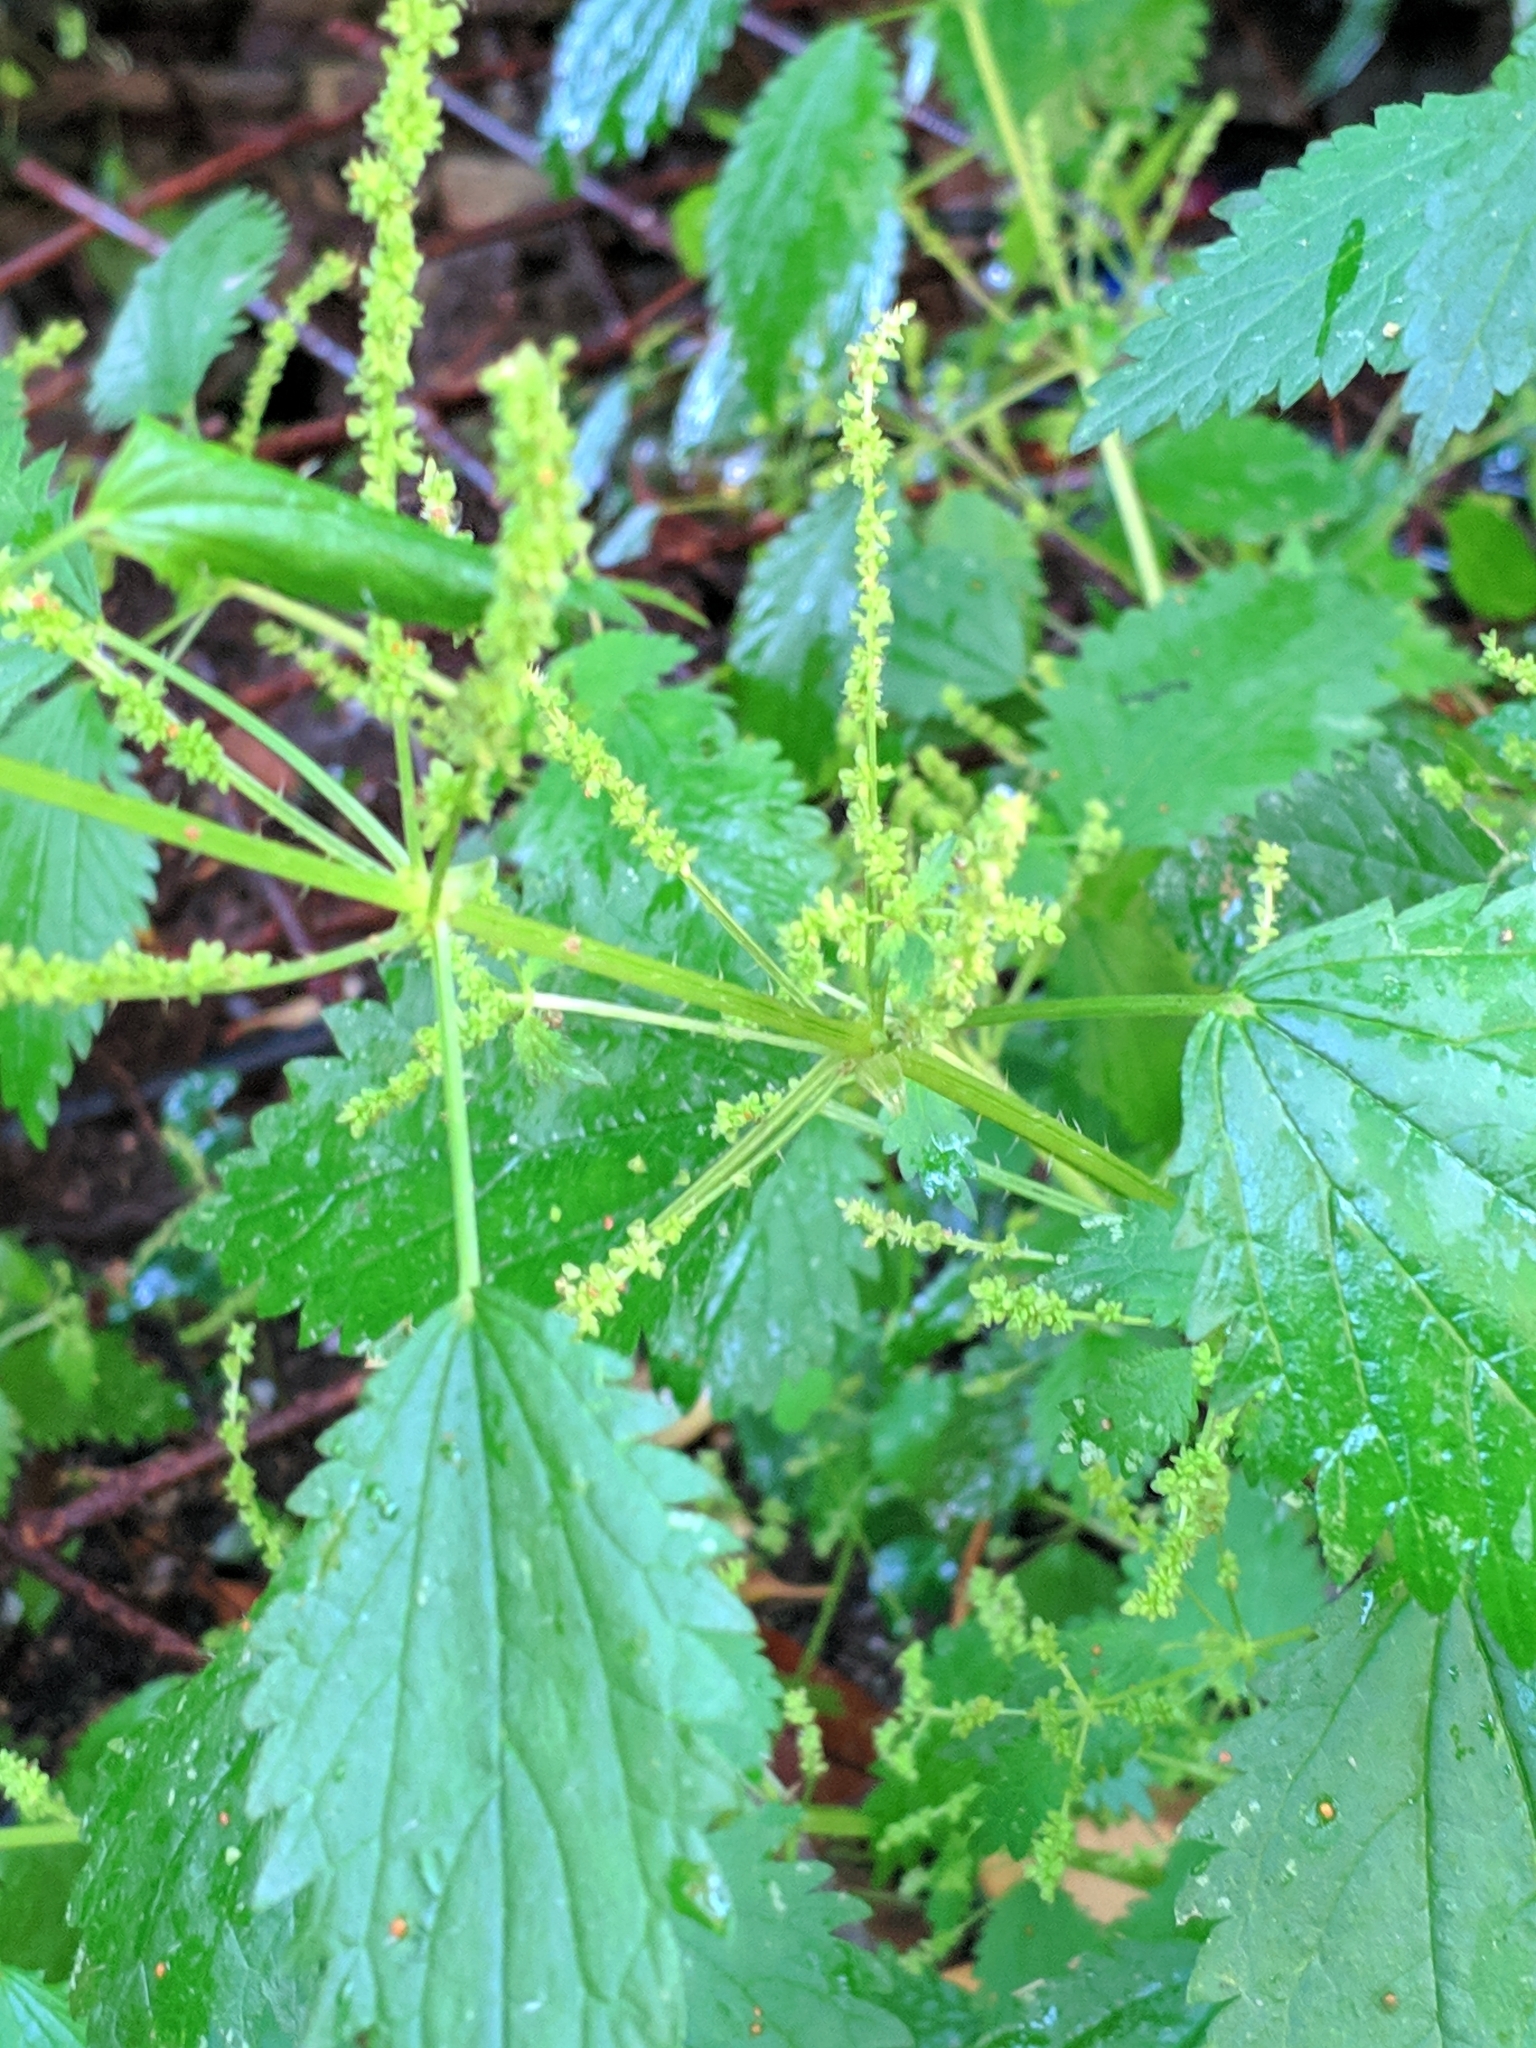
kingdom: Plantae
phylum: Tracheophyta
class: Magnoliopsida
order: Rosales
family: Urticaceae
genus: Urtica
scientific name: Urtica membranacea
